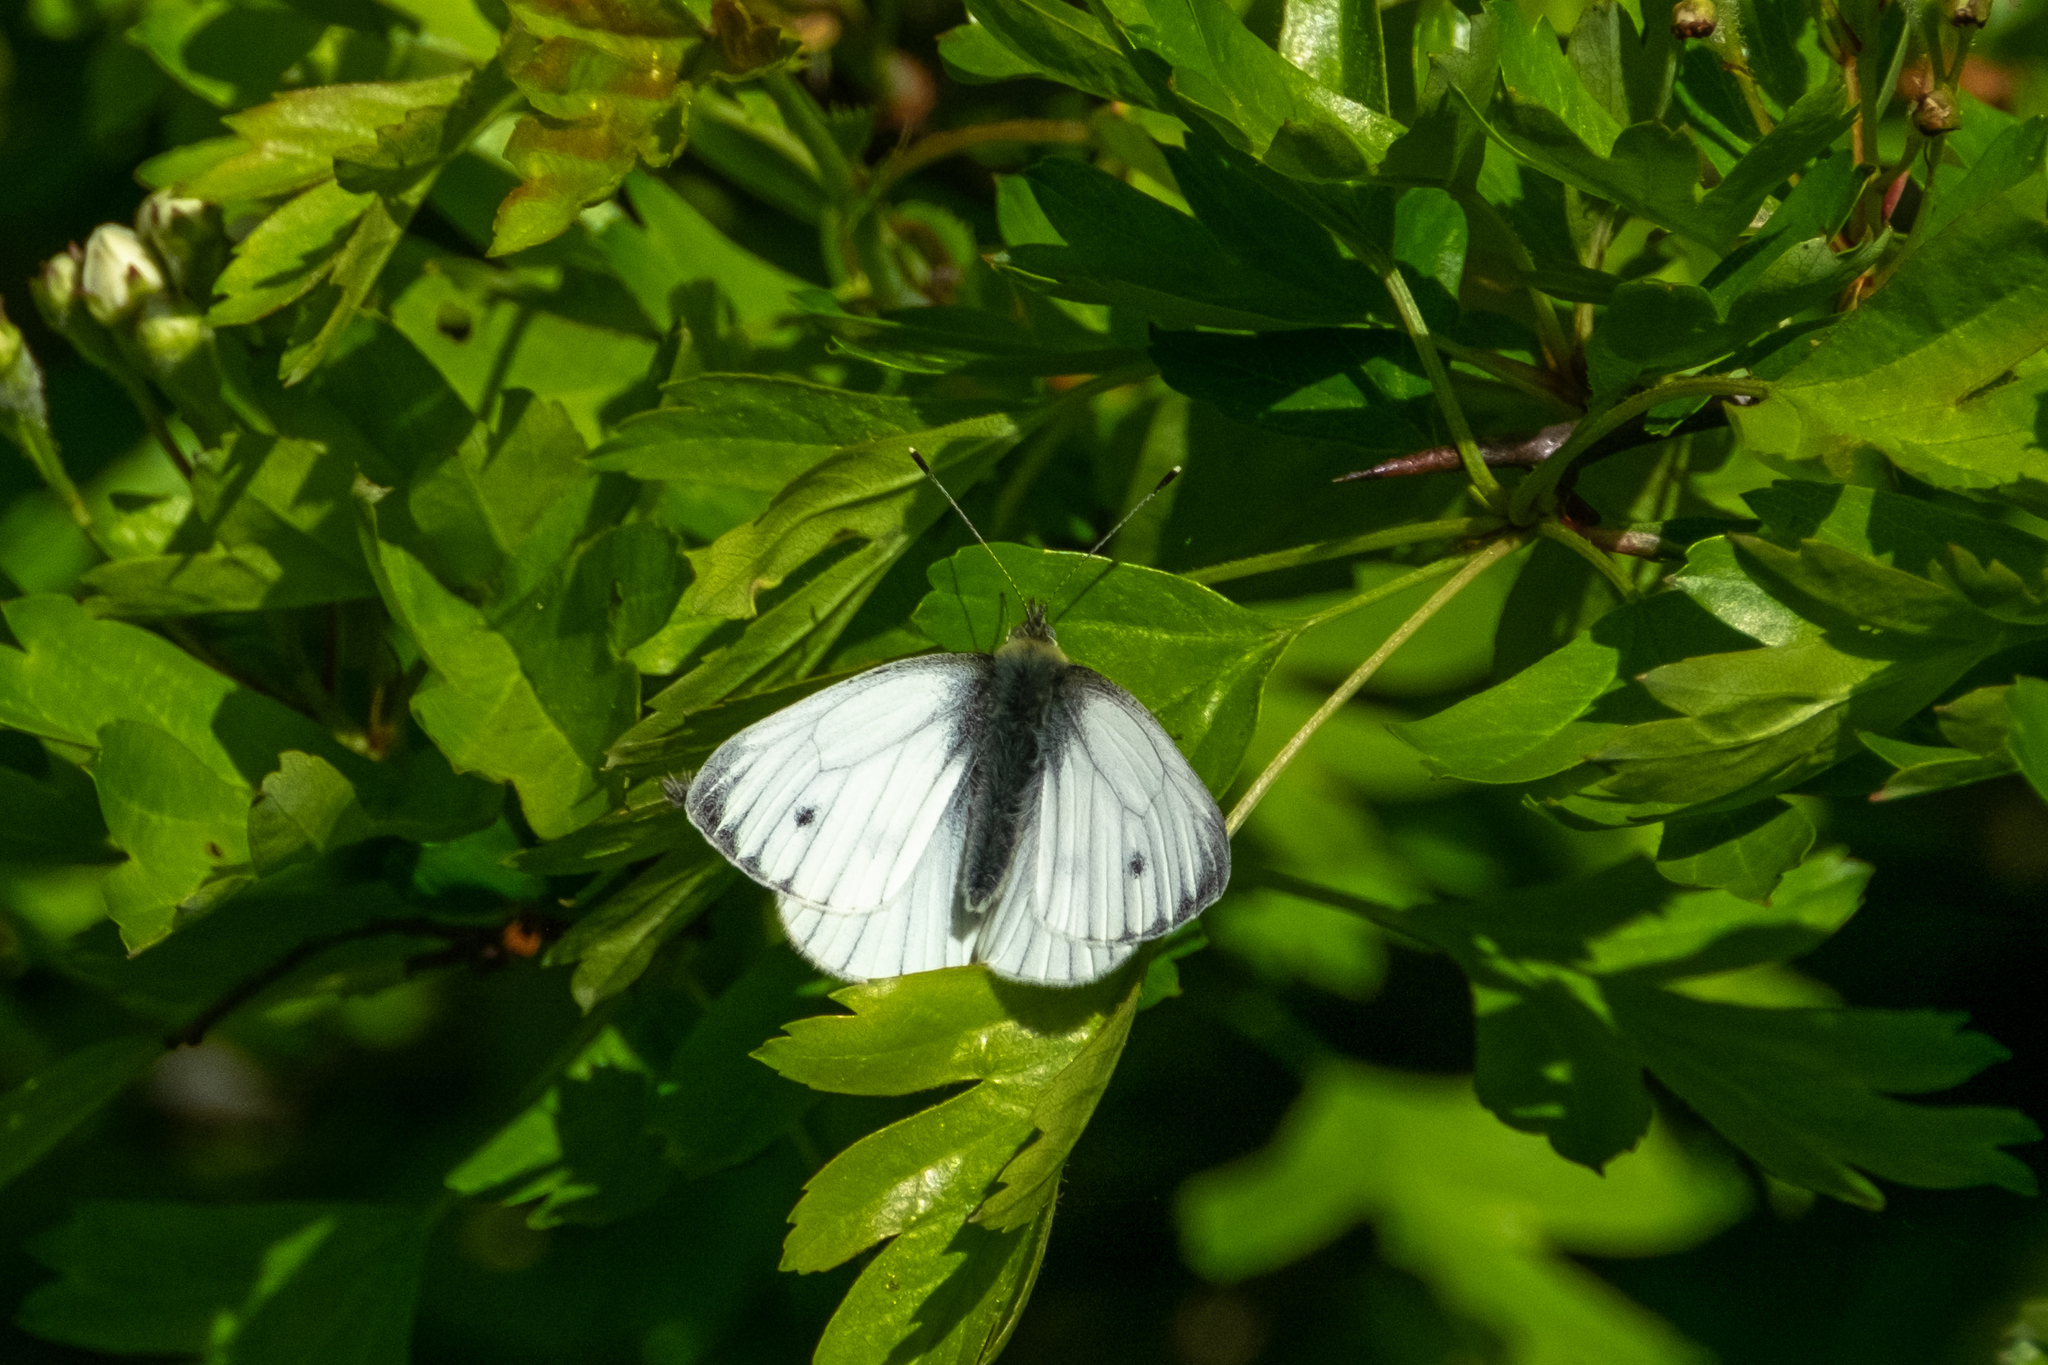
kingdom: Animalia
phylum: Arthropoda
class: Insecta
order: Lepidoptera
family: Pieridae
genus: Pieris
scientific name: Pieris napi
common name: Green-veined white
